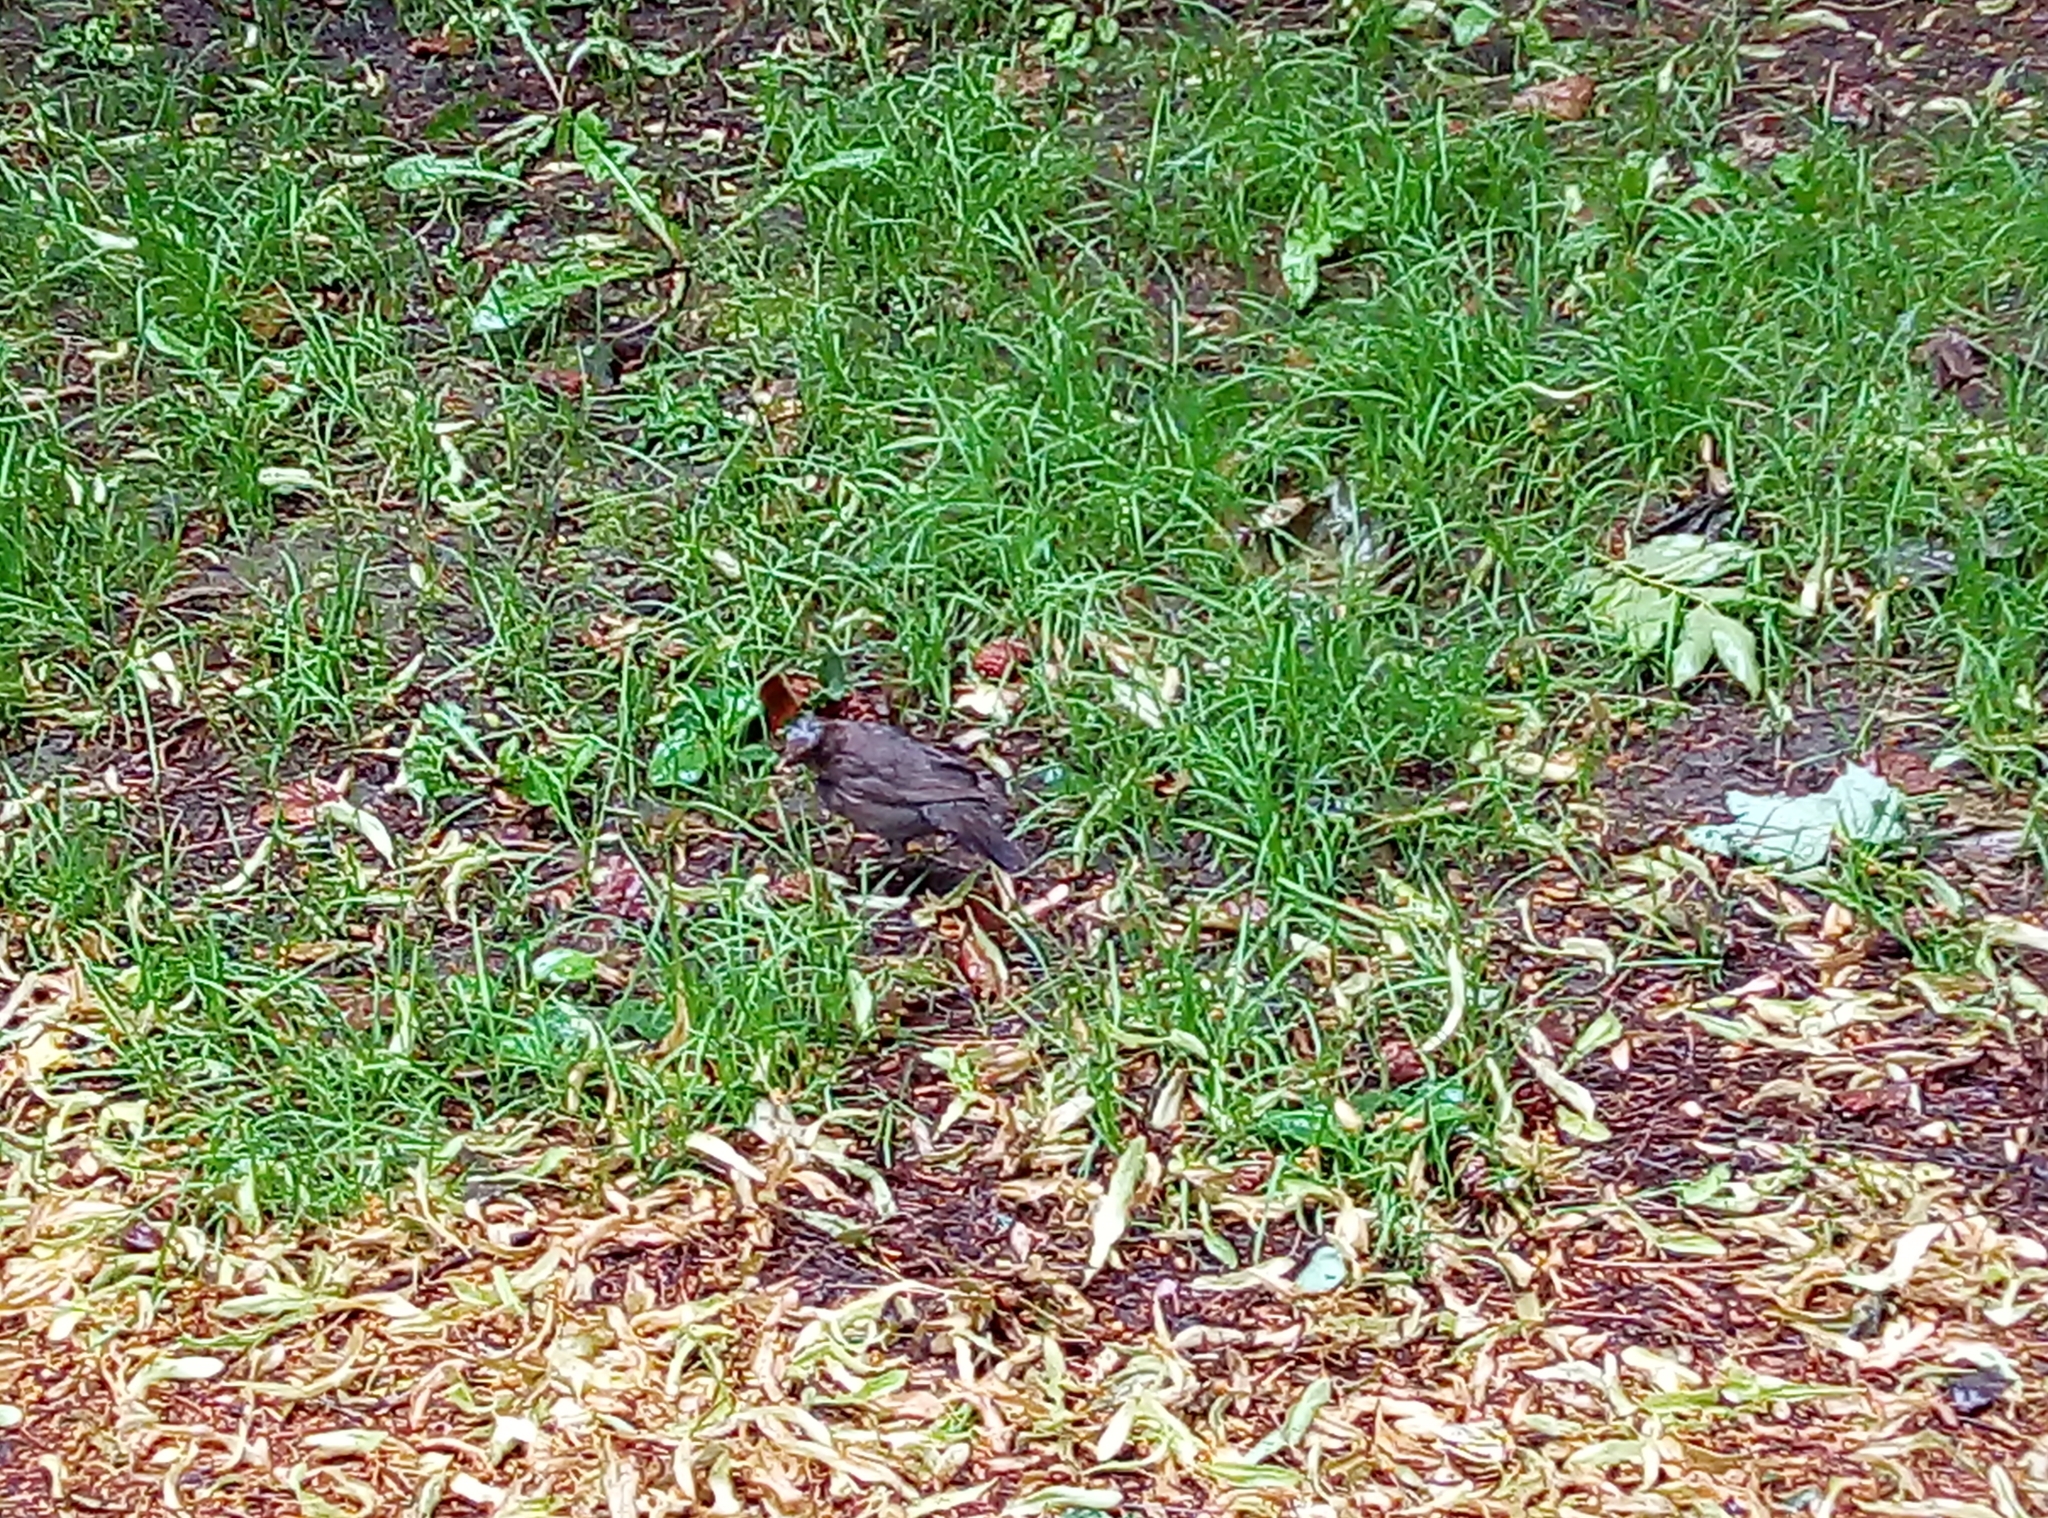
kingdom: Animalia
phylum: Chordata
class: Aves
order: Passeriformes
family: Turdidae
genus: Turdus
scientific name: Turdus merula
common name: Common blackbird
